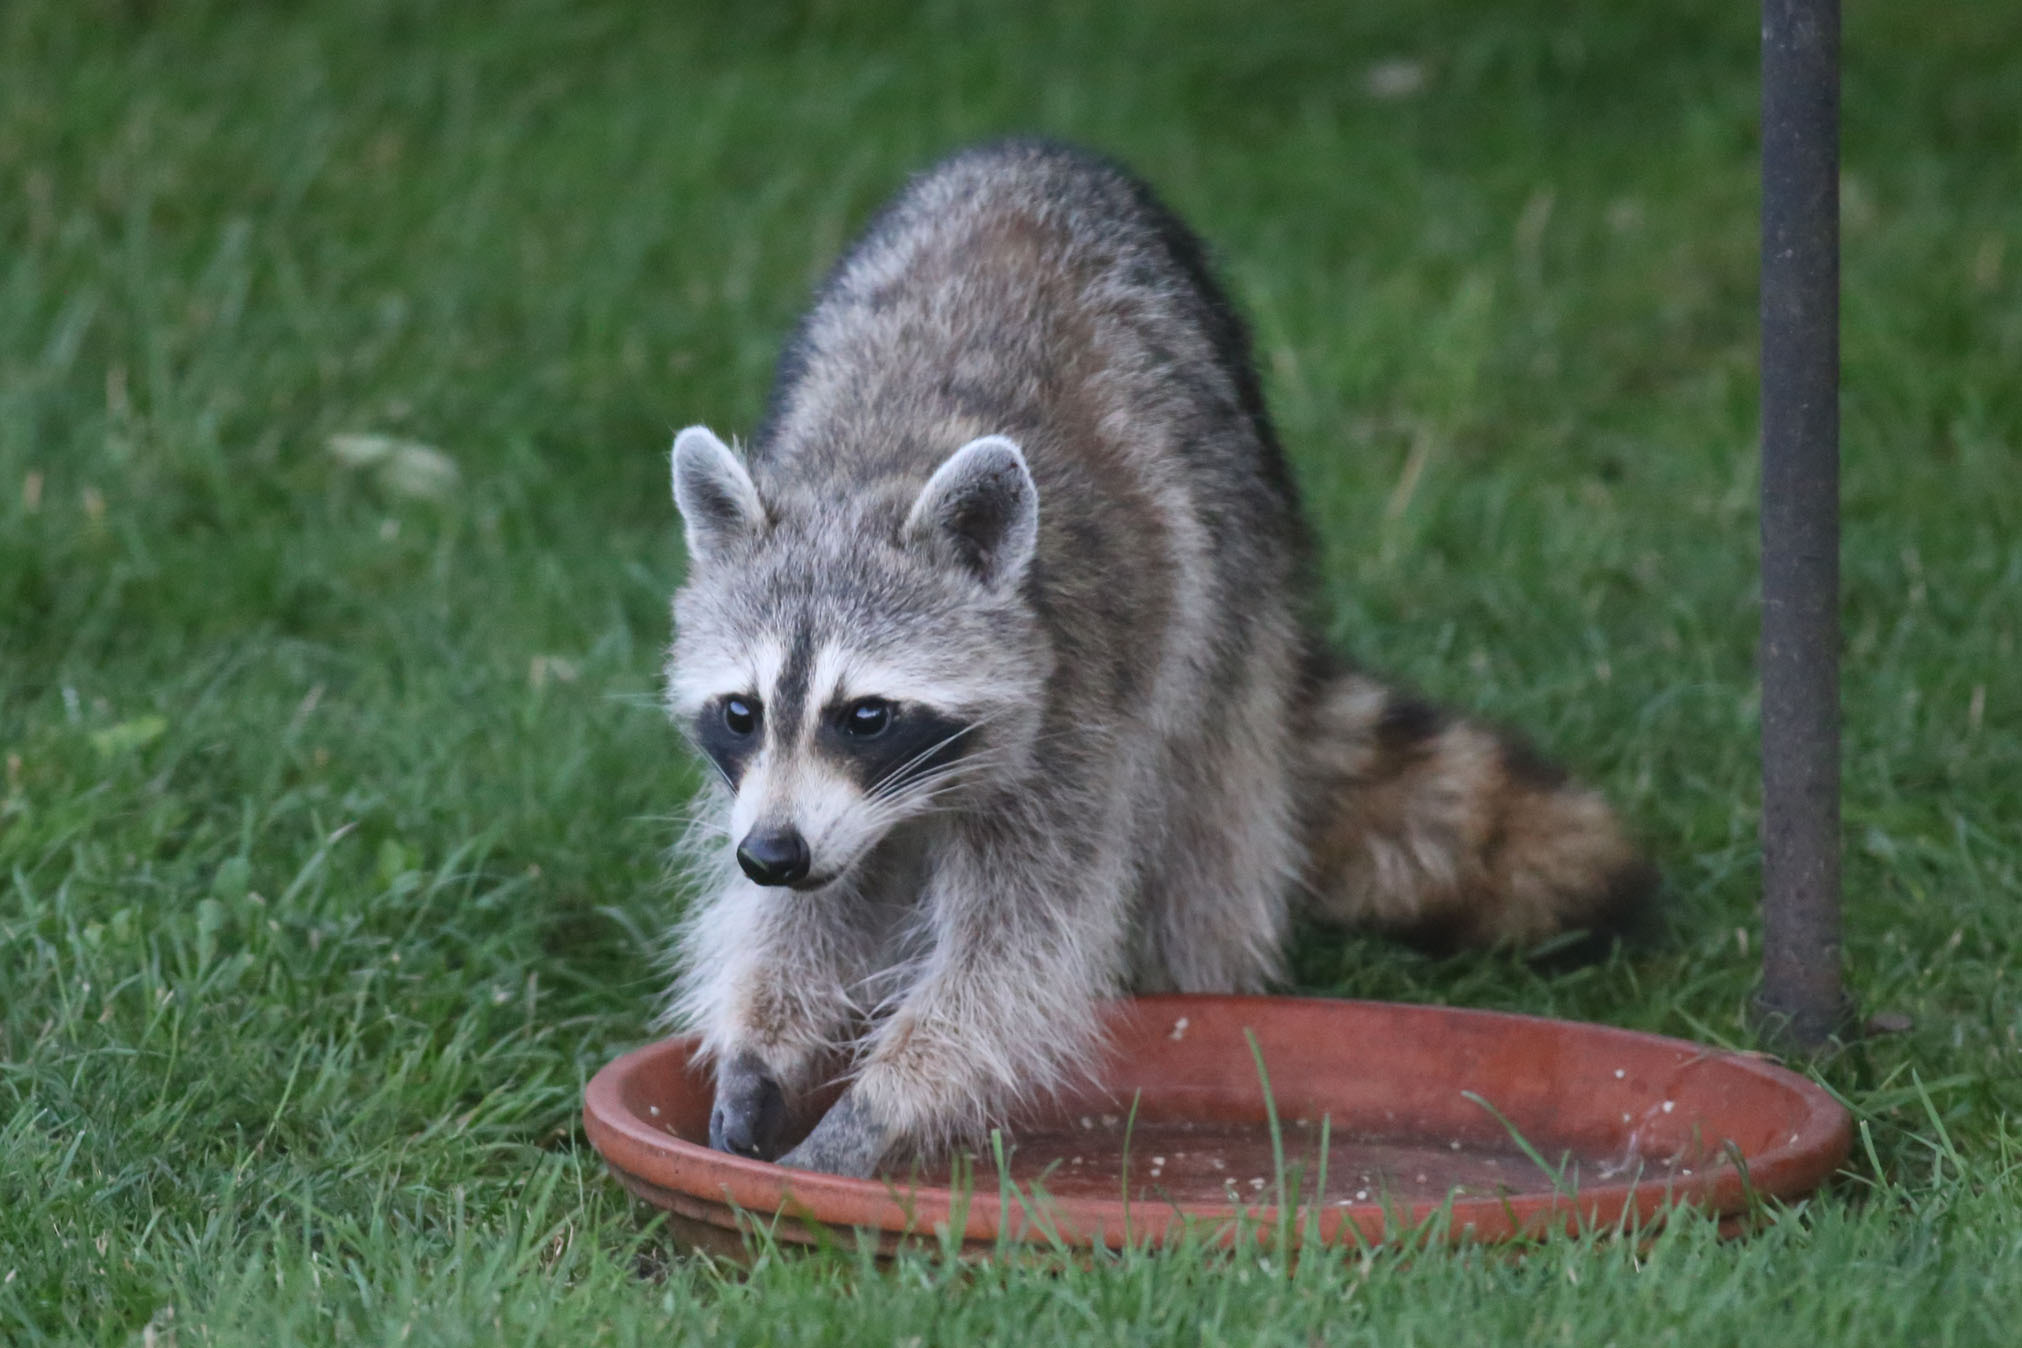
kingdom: Animalia
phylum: Chordata
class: Mammalia
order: Carnivora
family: Procyonidae
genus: Procyon
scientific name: Procyon lotor
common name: Raccoon
